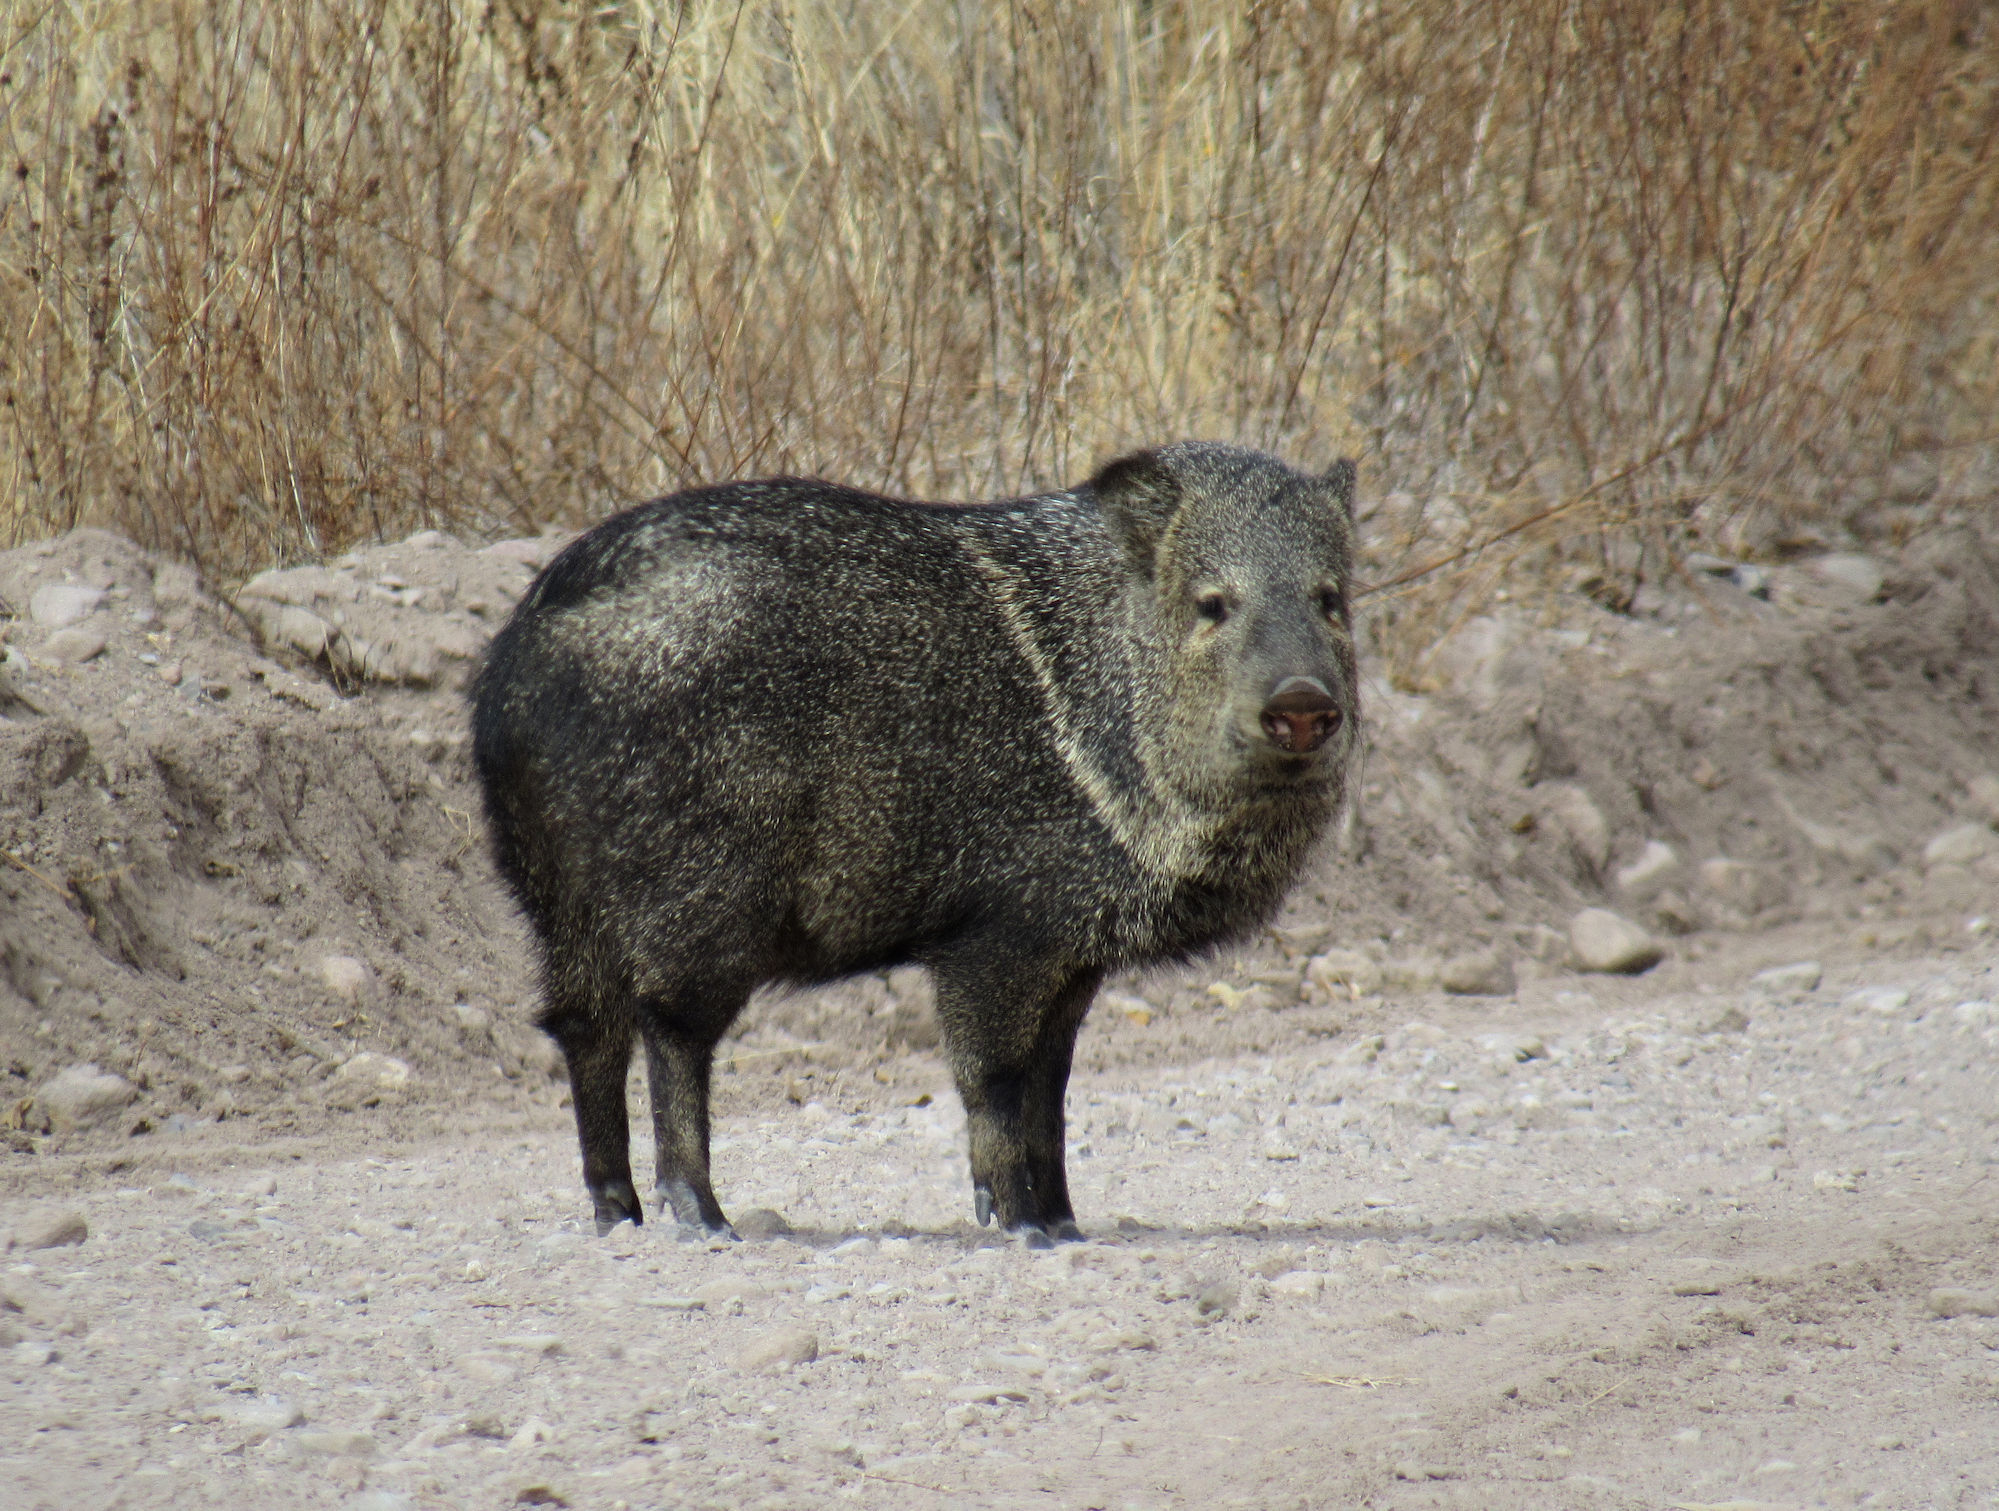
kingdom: Animalia
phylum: Chordata
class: Mammalia
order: Artiodactyla
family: Tayassuidae
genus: Pecari
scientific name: Pecari tajacu
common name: Collared peccary
